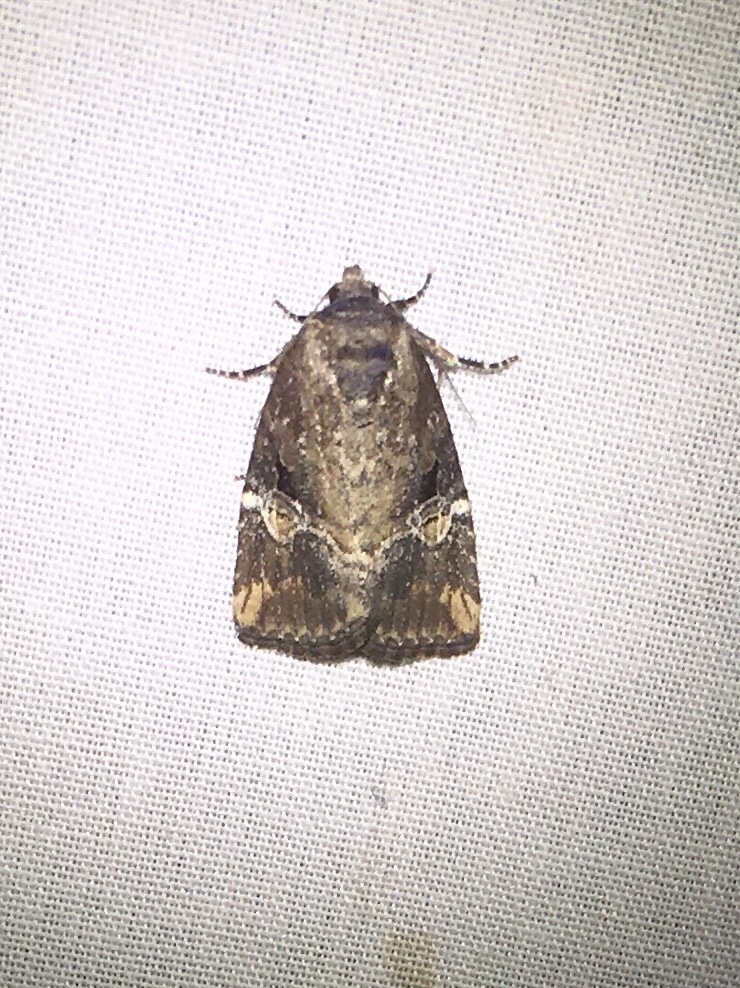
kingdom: Animalia
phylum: Arthropoda
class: Insecta
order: Lepidoptera
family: Noctuidae
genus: Elaphria
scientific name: Elaphria versicolor
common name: Fir harlequin
